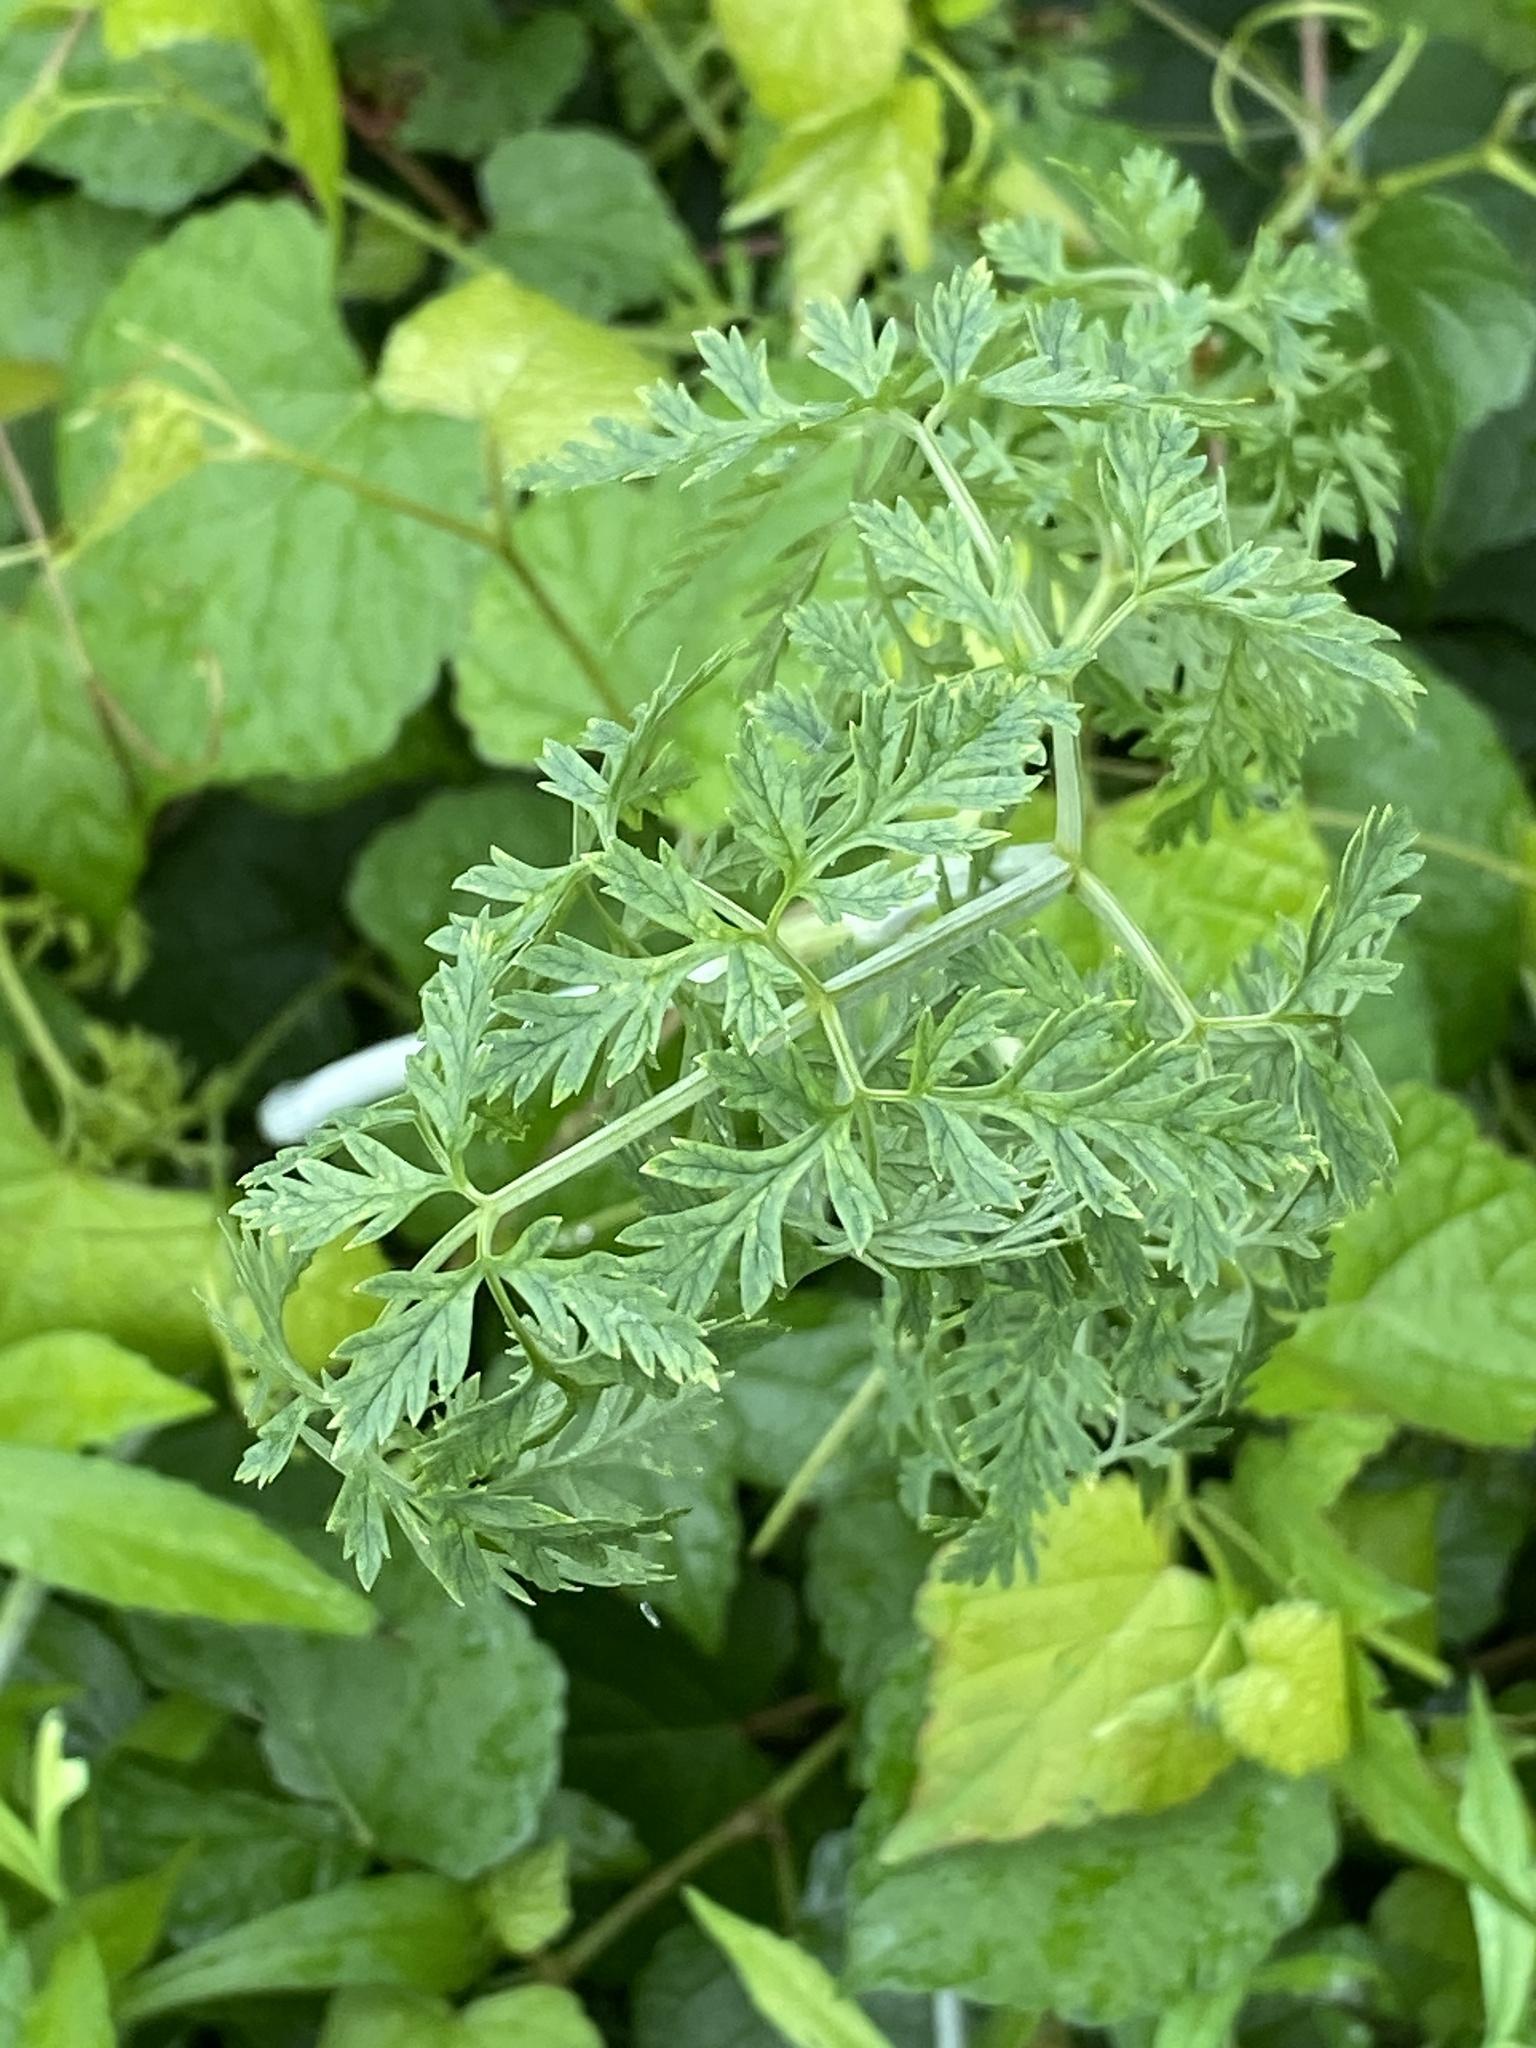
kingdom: Plantae
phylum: Tracheophyta
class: Magnoliopsida
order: Apiales
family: Apiaceae
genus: Conium
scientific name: Conium maculatum
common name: Hemlock
